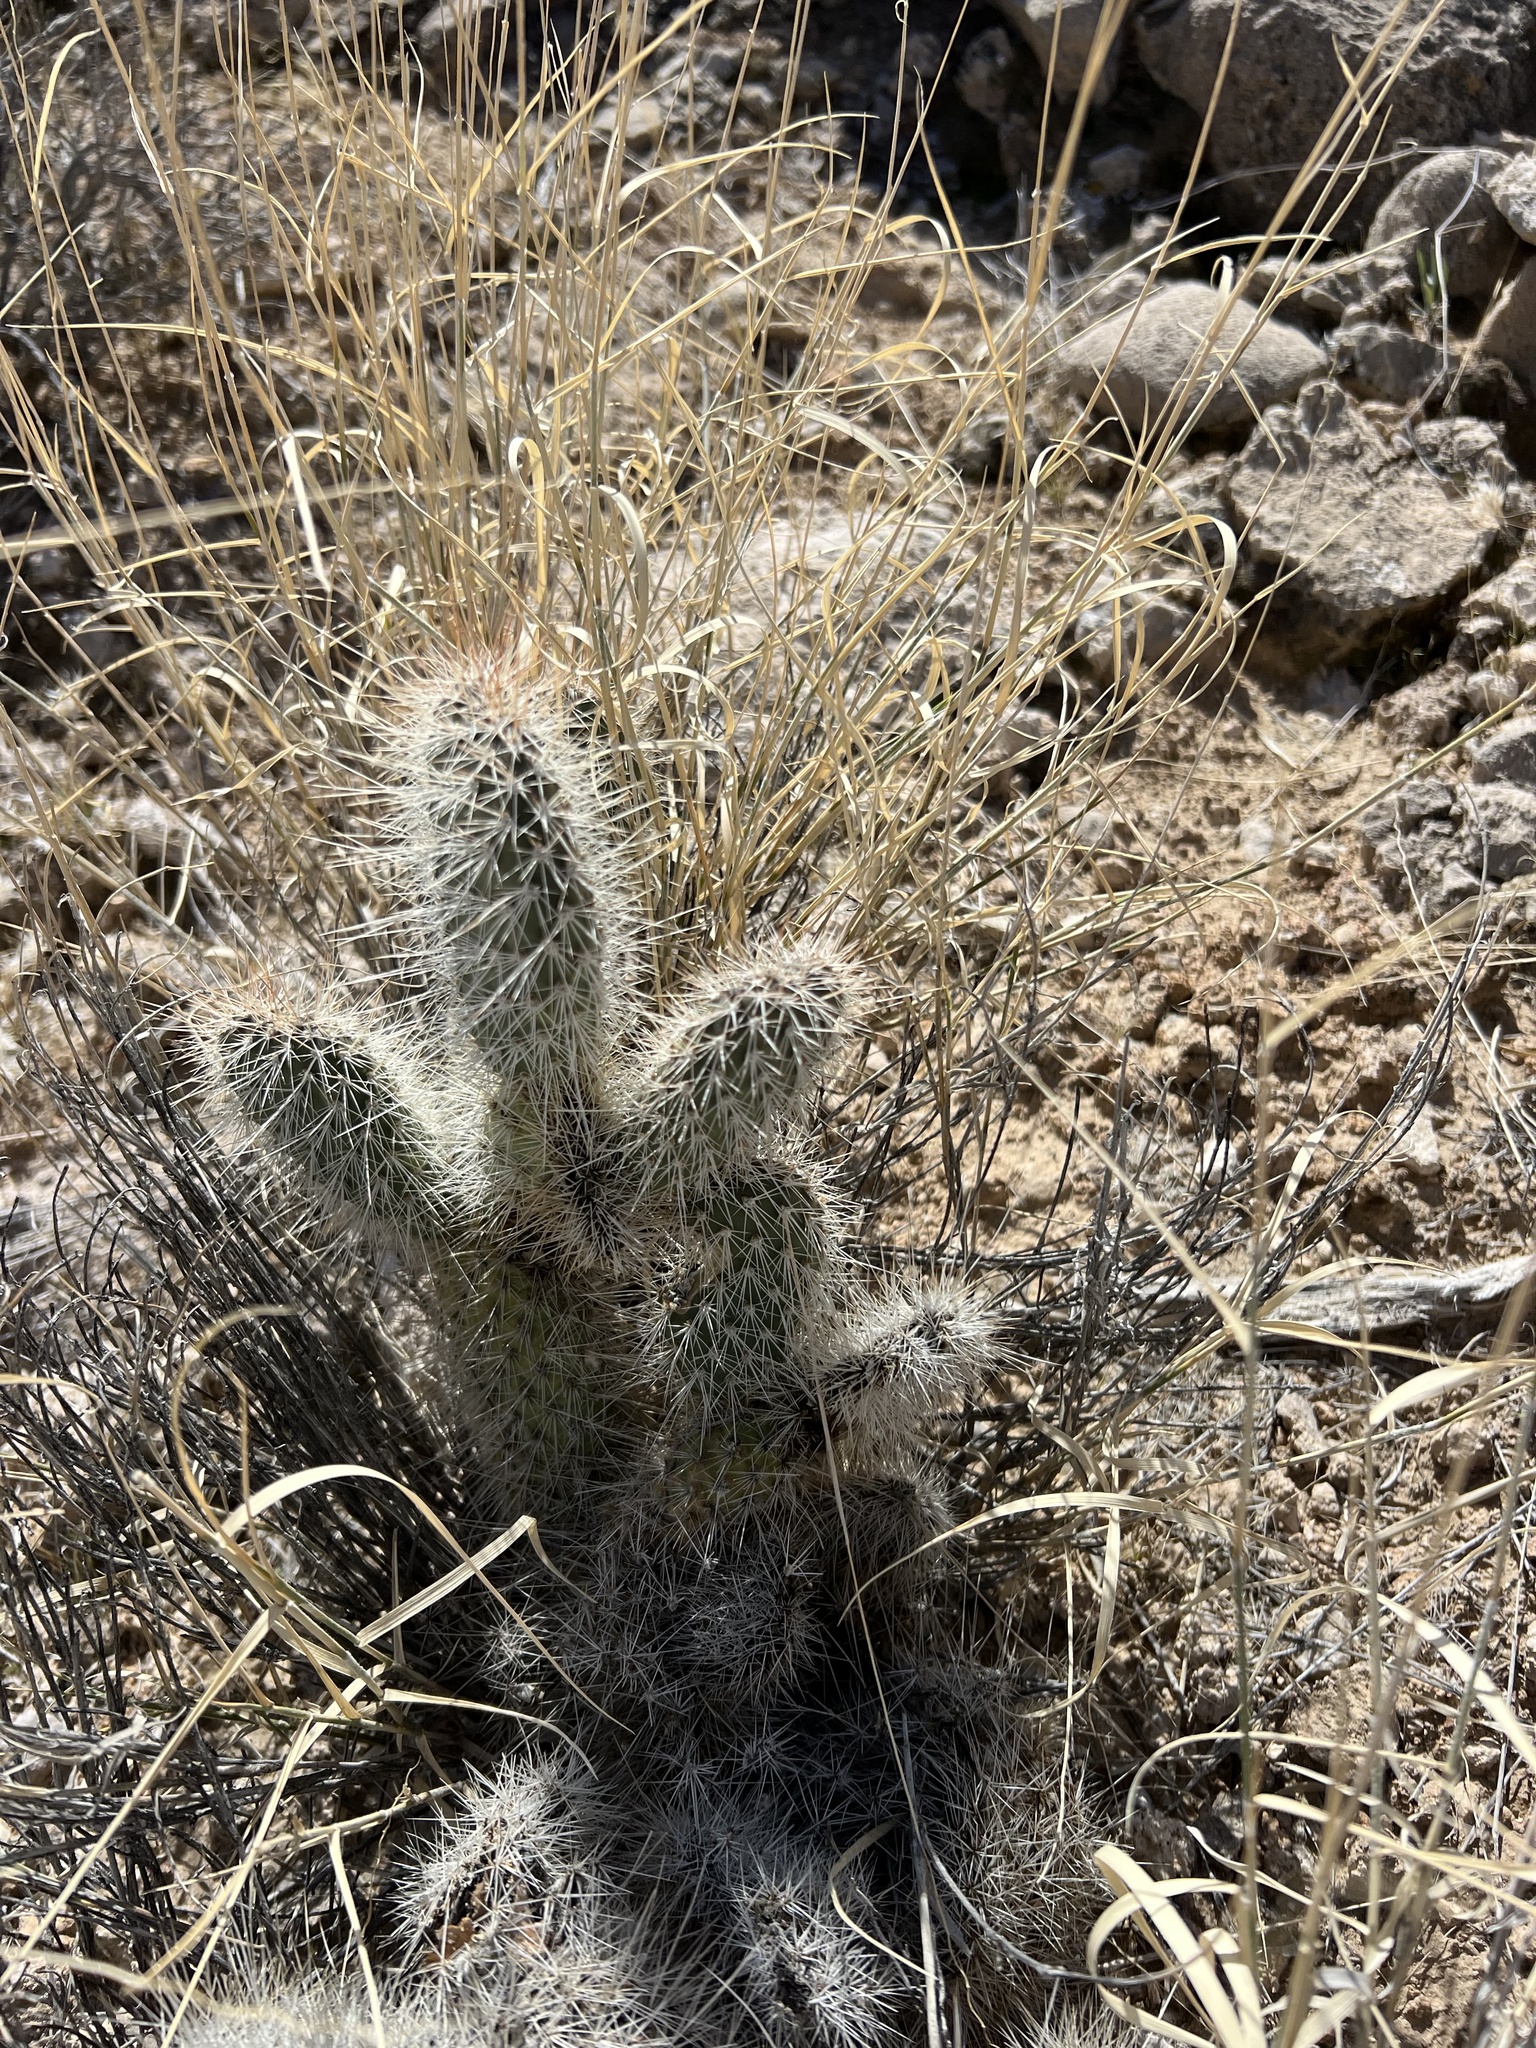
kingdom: Plantae
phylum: Tracheophyta
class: Magnoliopsida
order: Caryophyllales
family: Cactaceae
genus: Opuntia
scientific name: Opuntia polyacantha
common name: Plains prickly-pear
